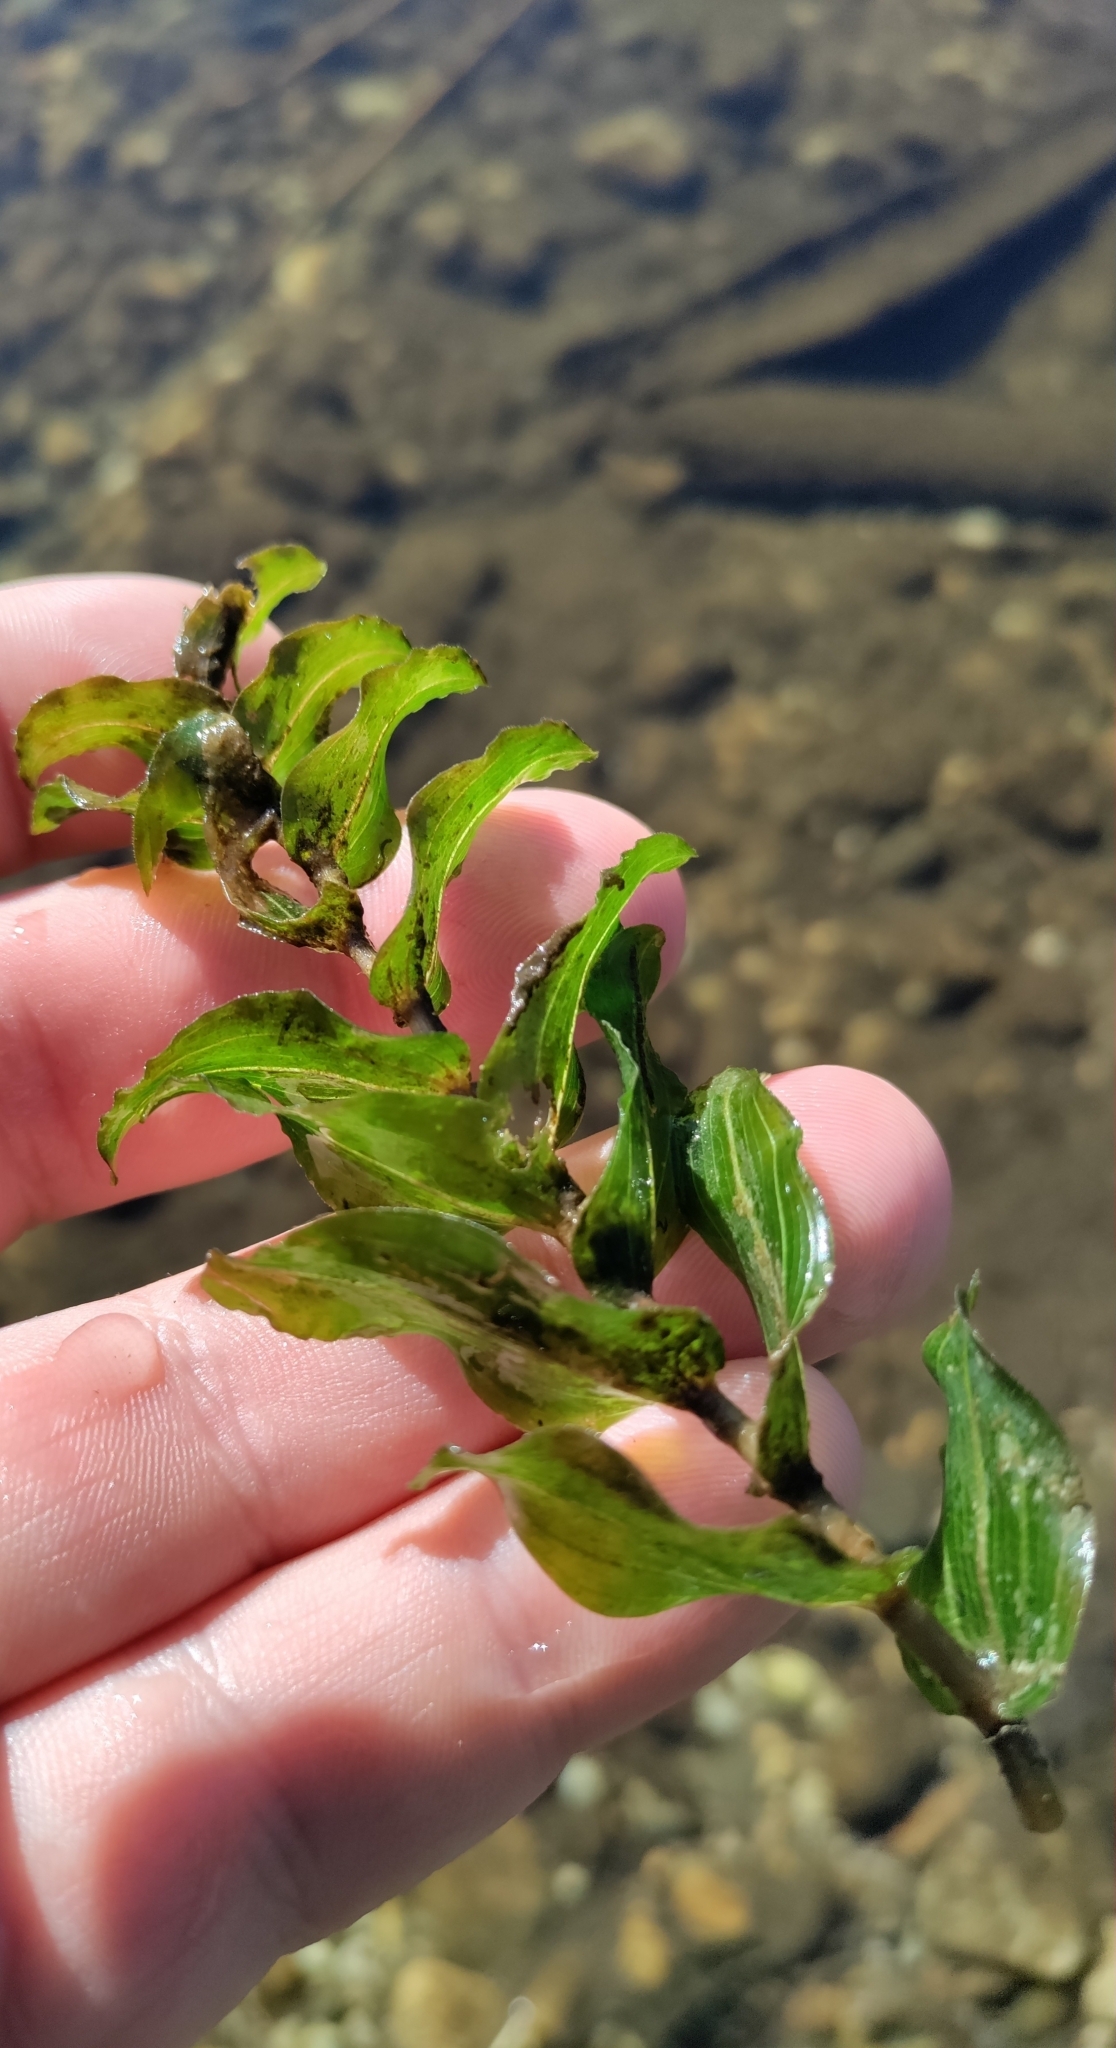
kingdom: Plantae
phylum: Tracheophyta
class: Liliopsida
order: Alismatales
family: Potamogetonaceae
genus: Potamogeton
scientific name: Potamogeton perfoliatus
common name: Perfoliate pondweed
